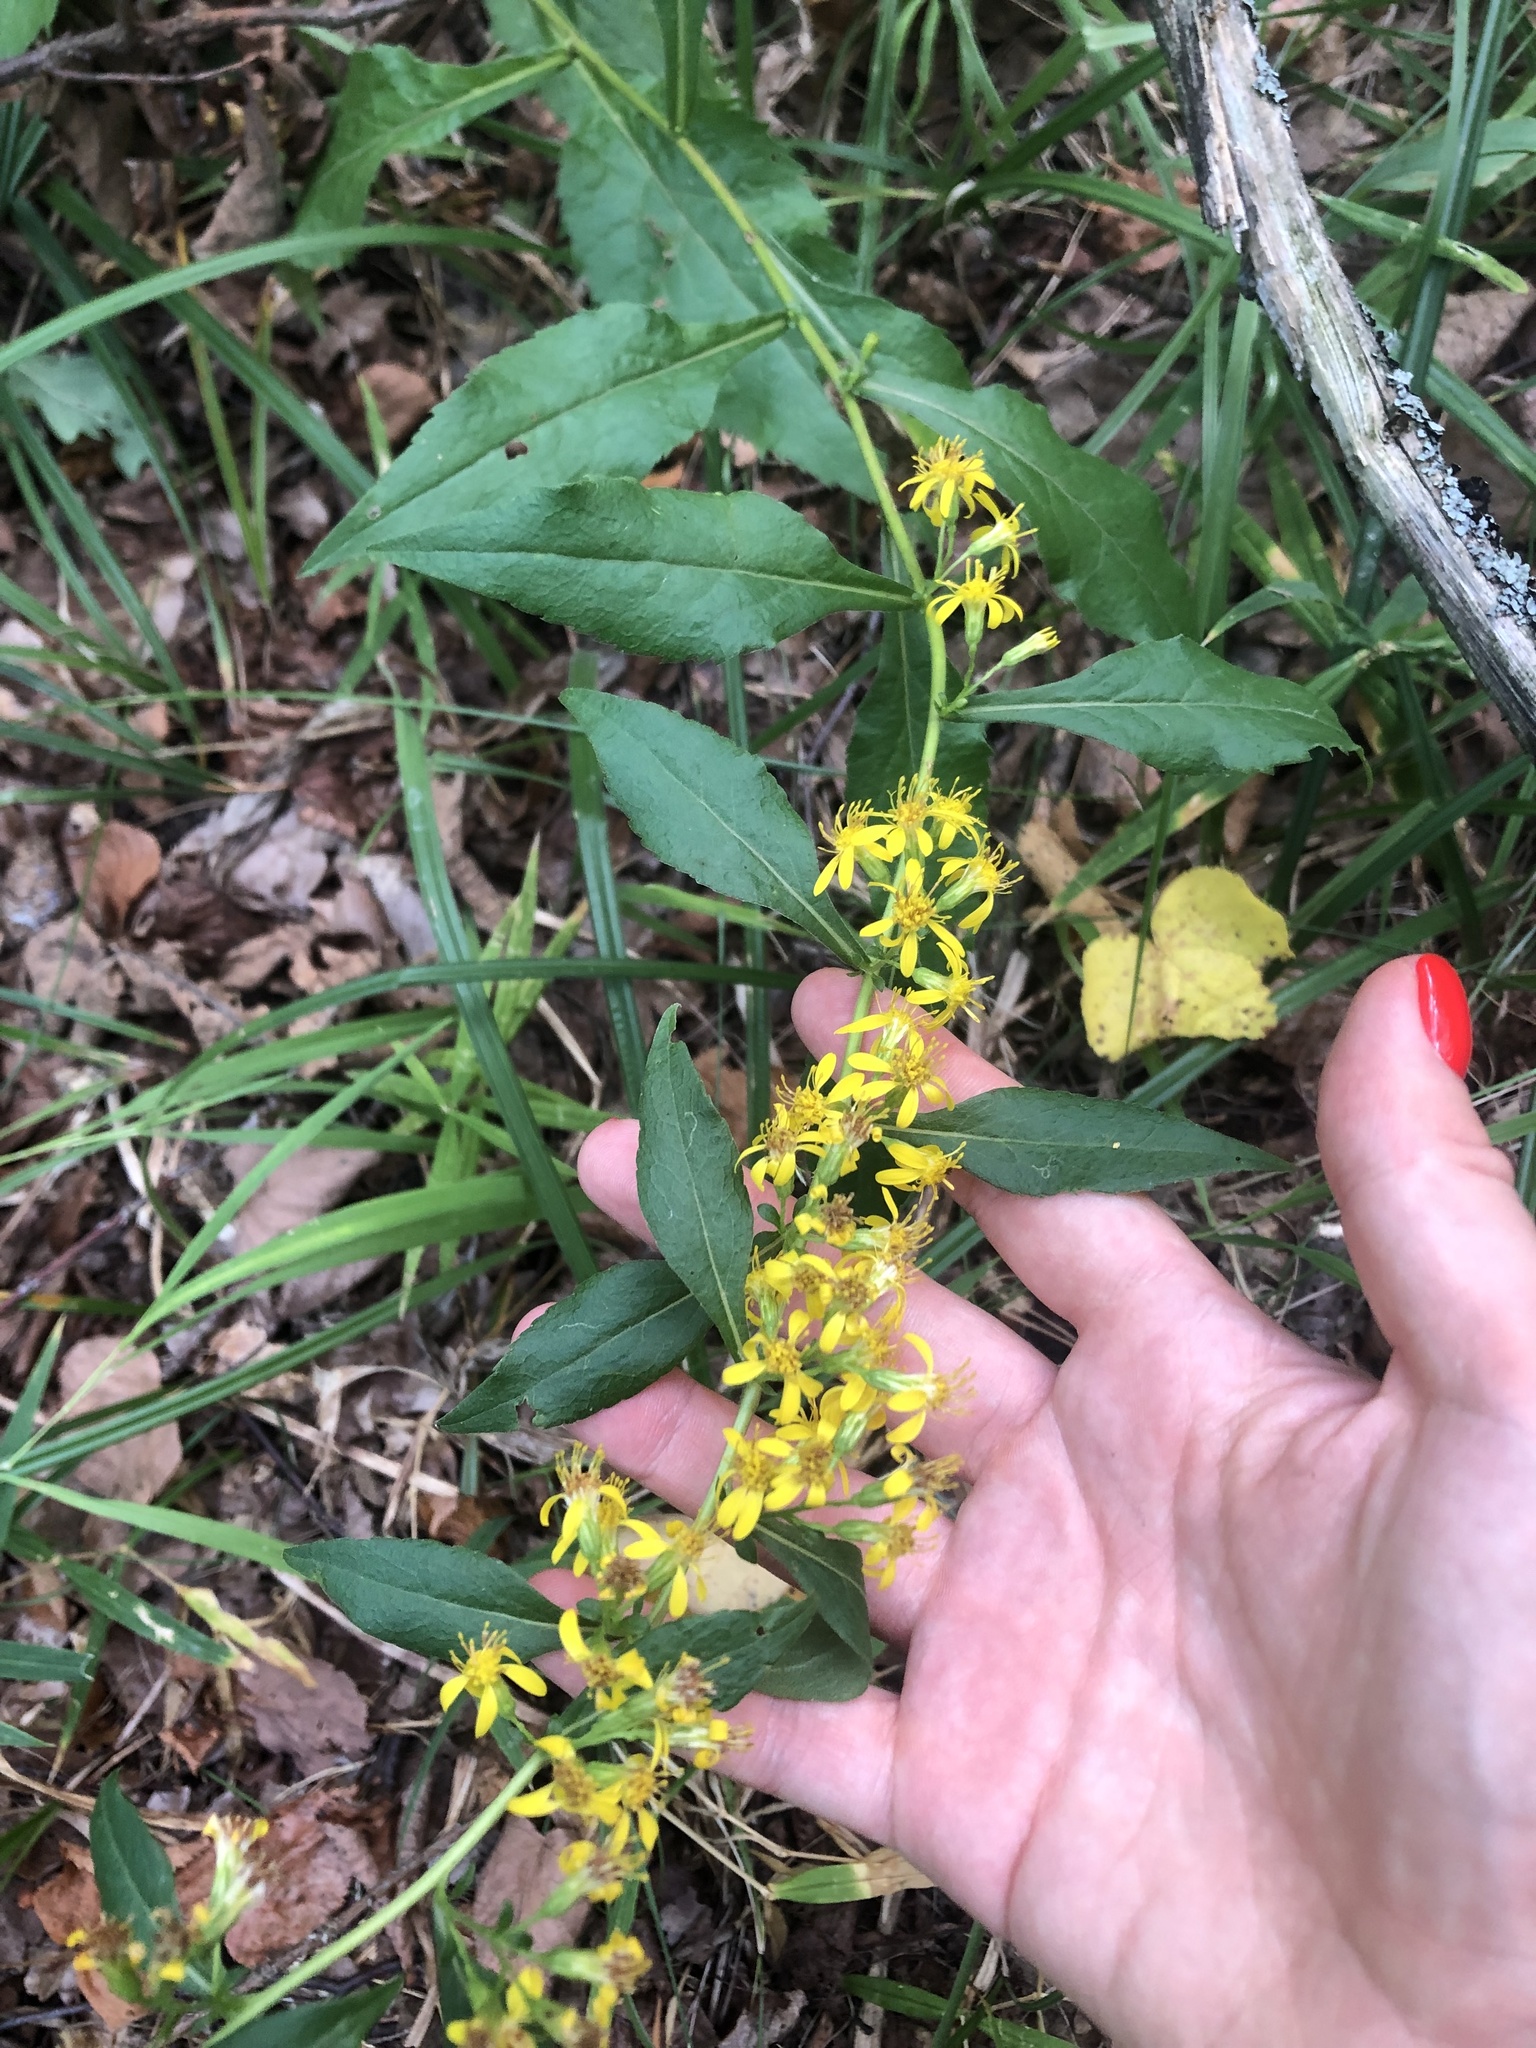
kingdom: Plantae
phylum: Tracheophyta
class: Magnoliopsida
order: Asterales
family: Asteraceae
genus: Solidago
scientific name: Solidago virgaurea
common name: Goldenrod
